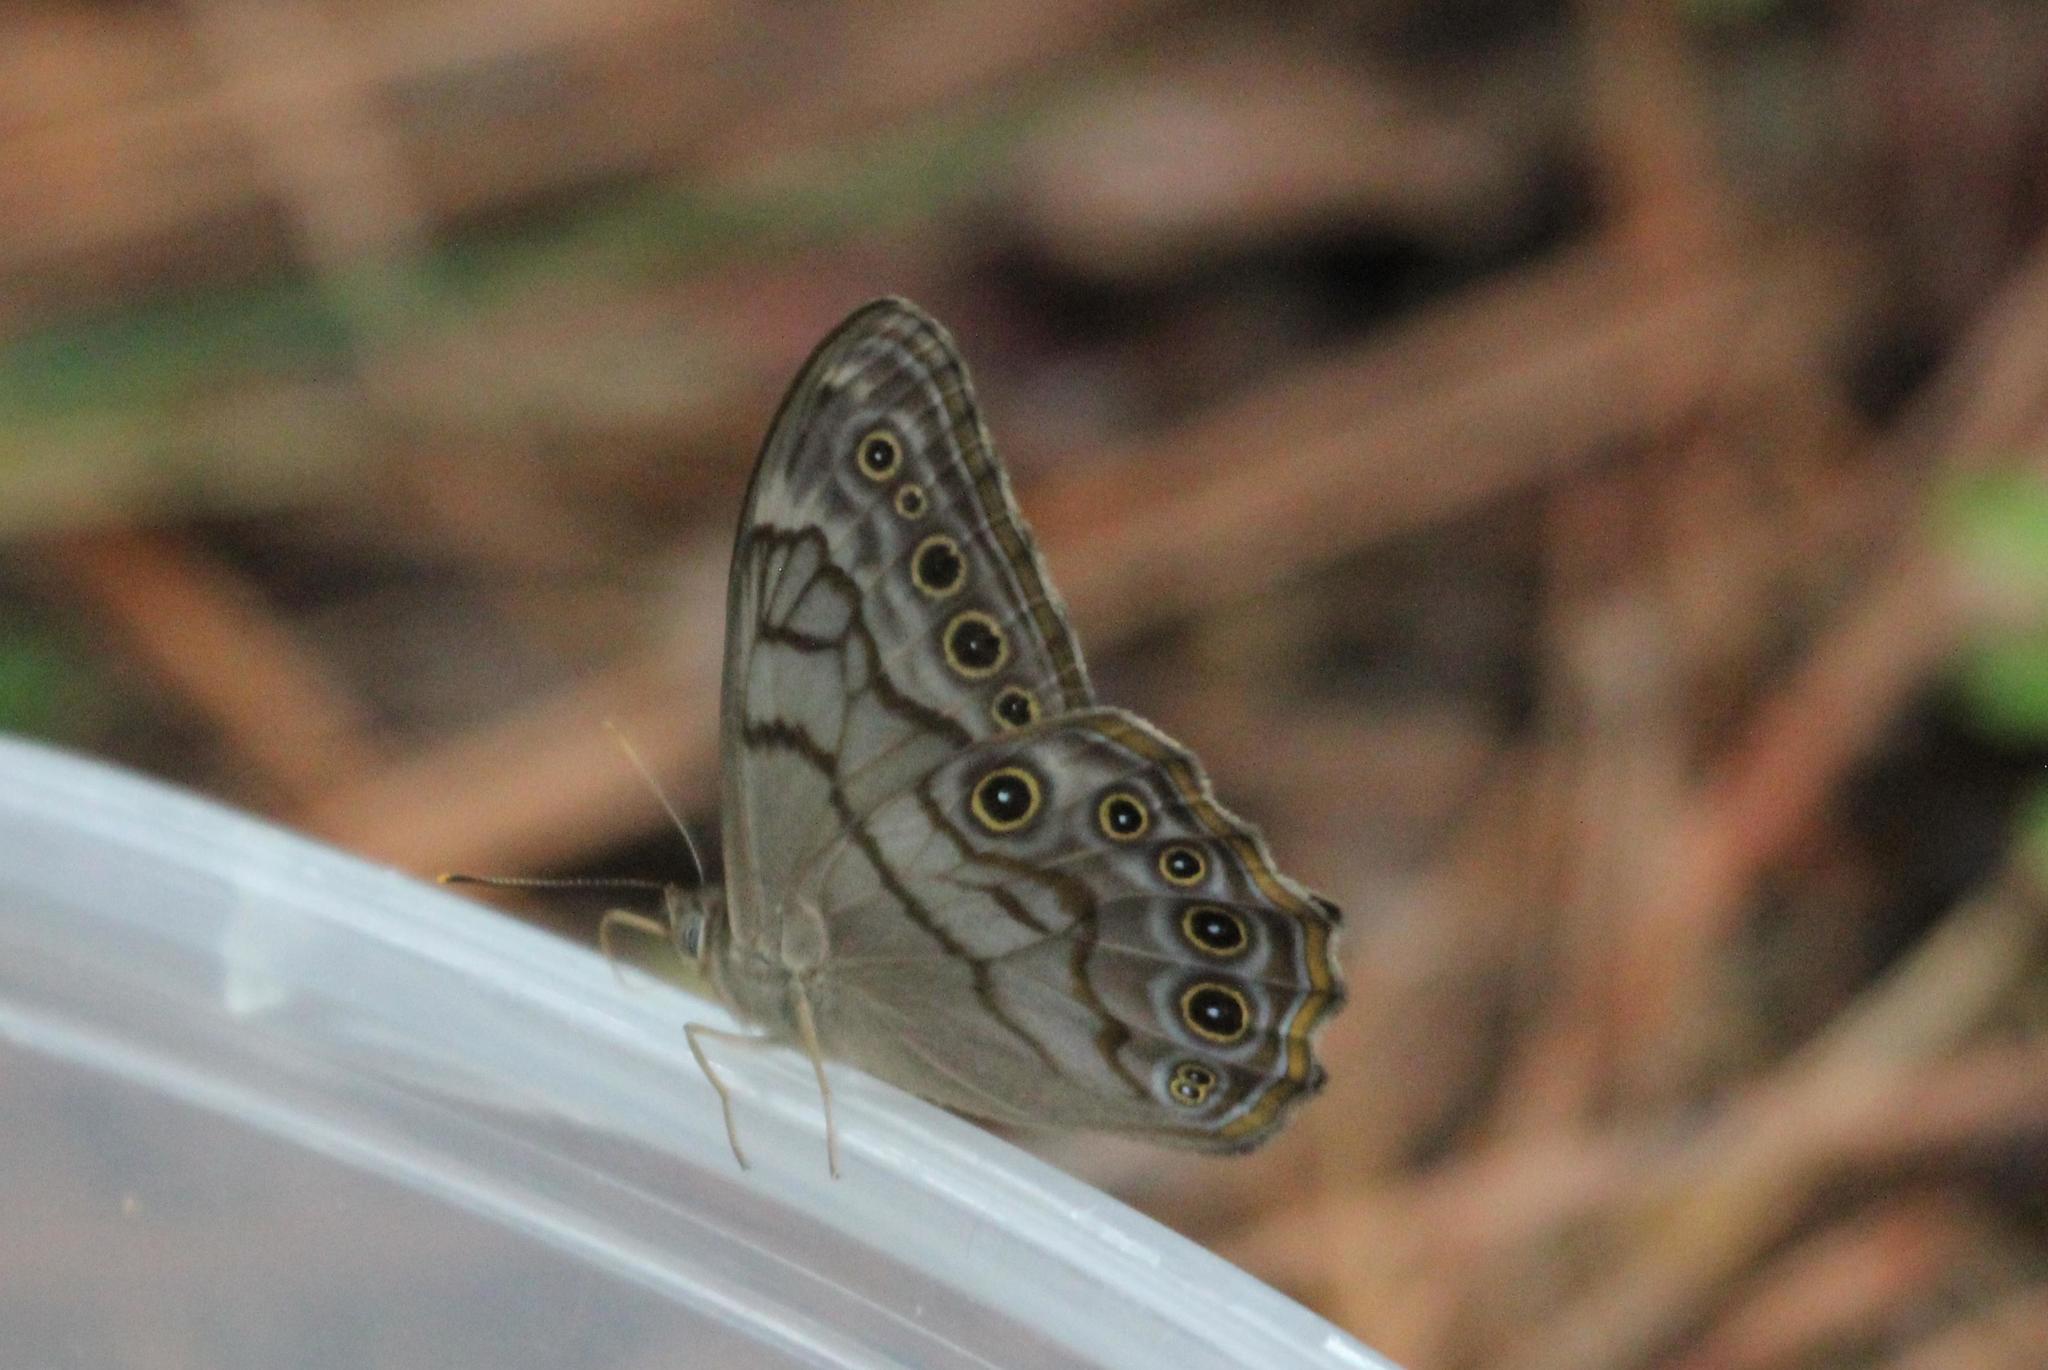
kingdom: Animalia
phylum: Arthropoda
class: Insecta
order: Lepidoptera
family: Nymphalidae
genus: Lethe
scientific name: Lethe creola
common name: Creole pearly-eye
